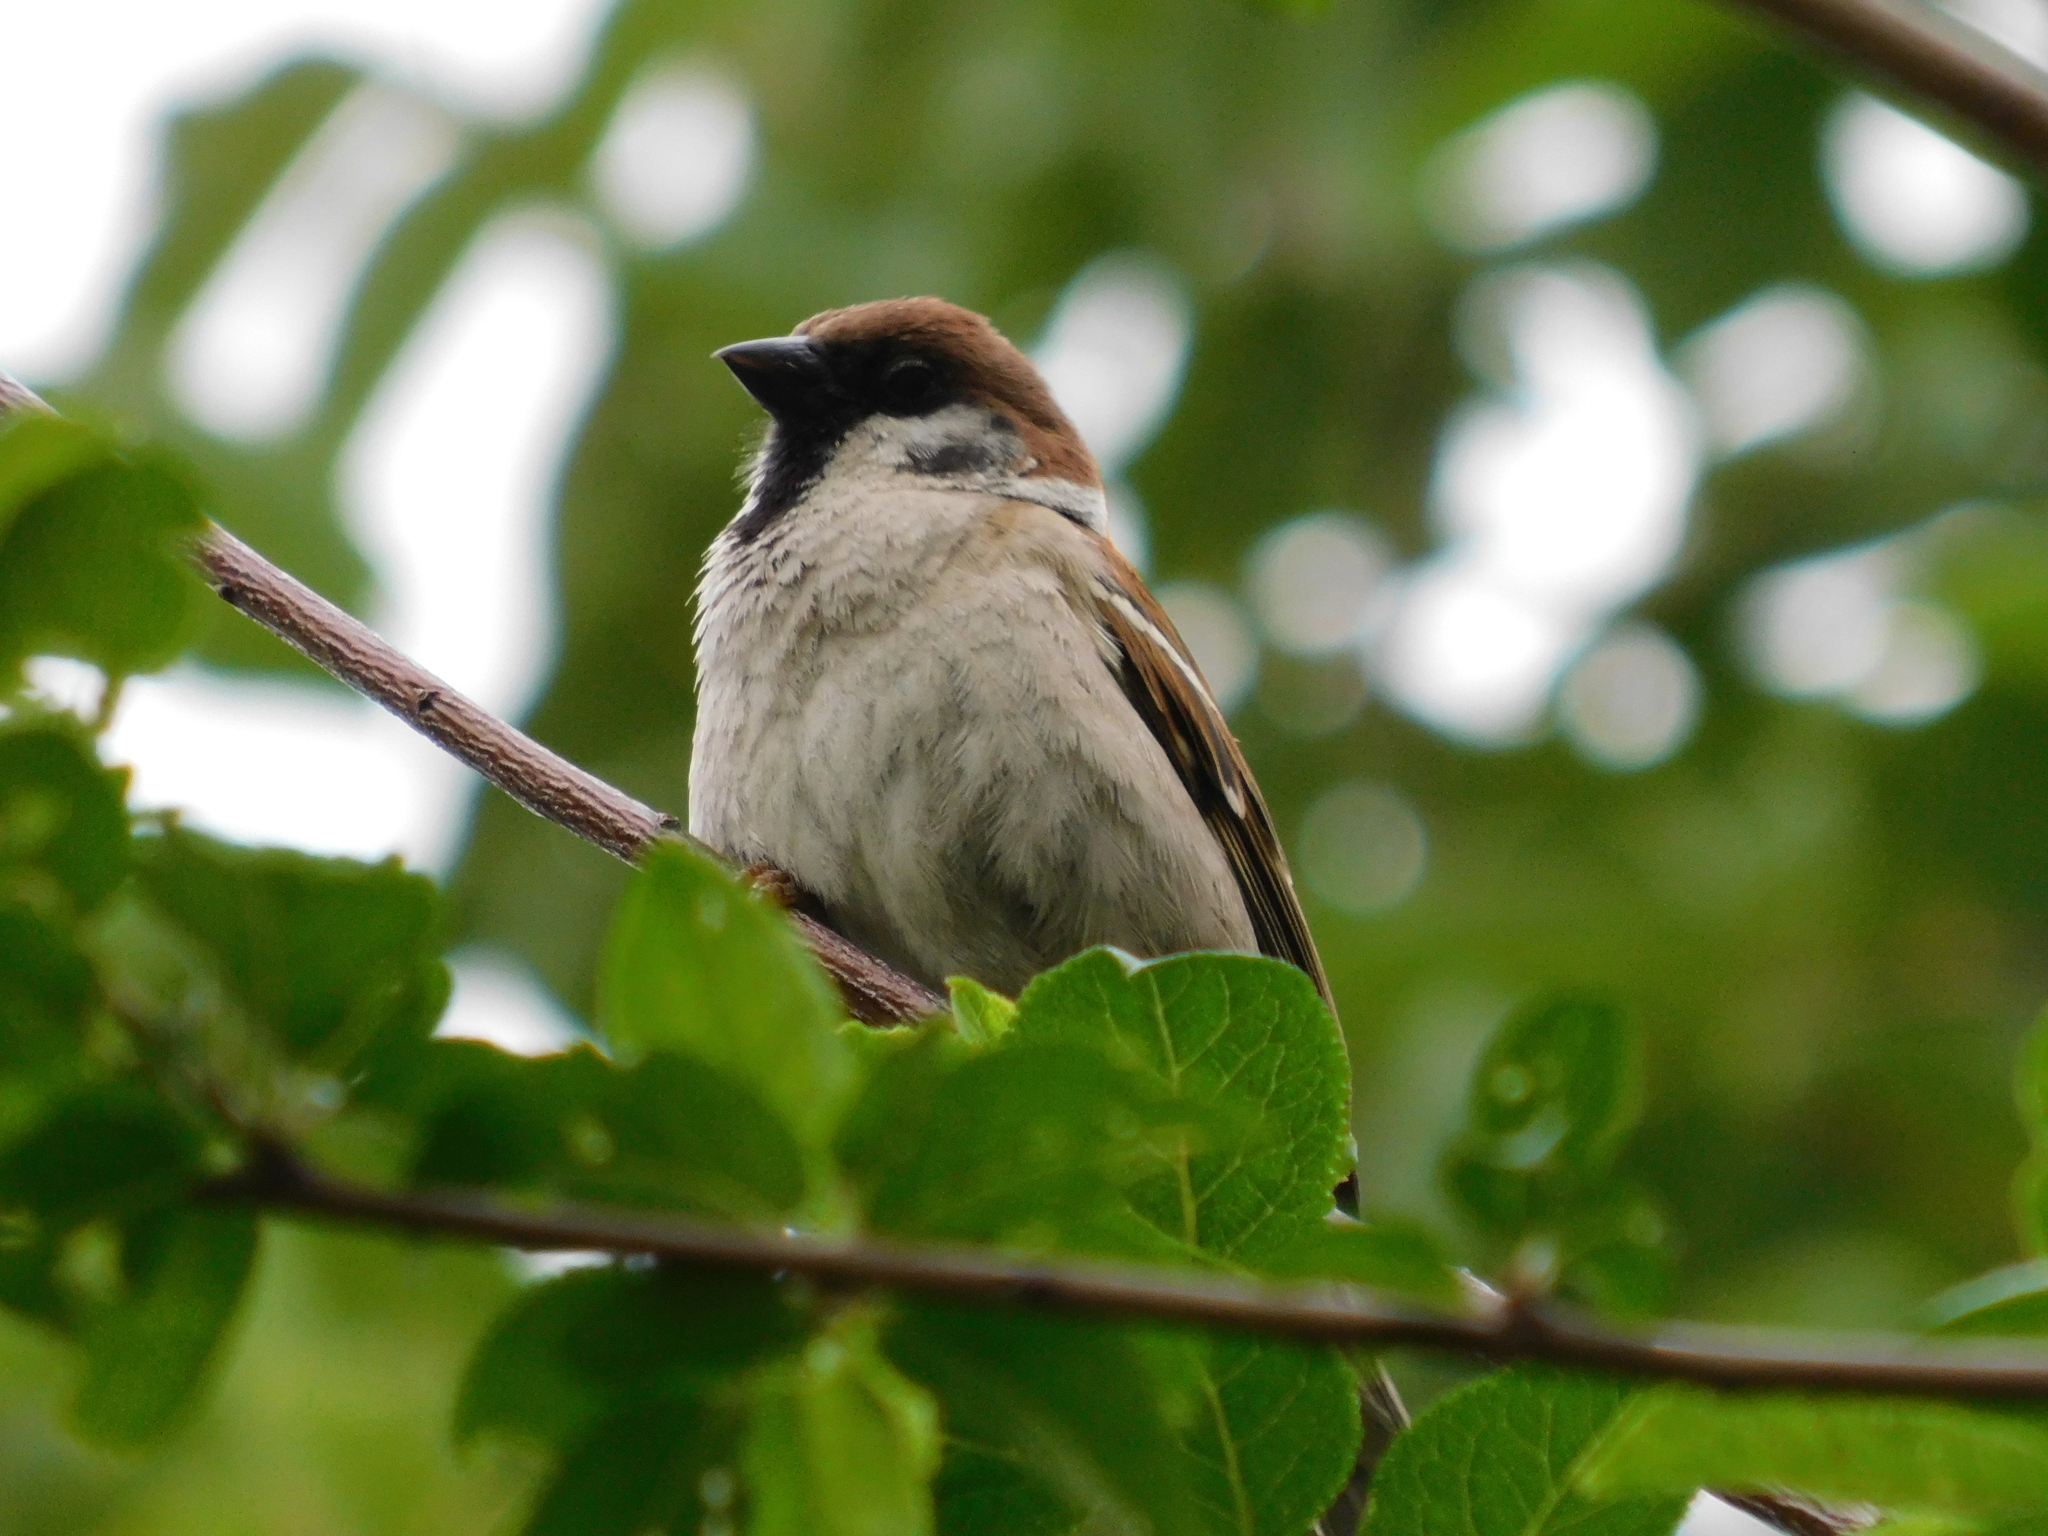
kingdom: Animalia
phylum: Chordata
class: Aves
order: Passeriformes
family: Passeridae
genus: Passer
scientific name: Passer montanus
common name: Eurasian tree sparrow
